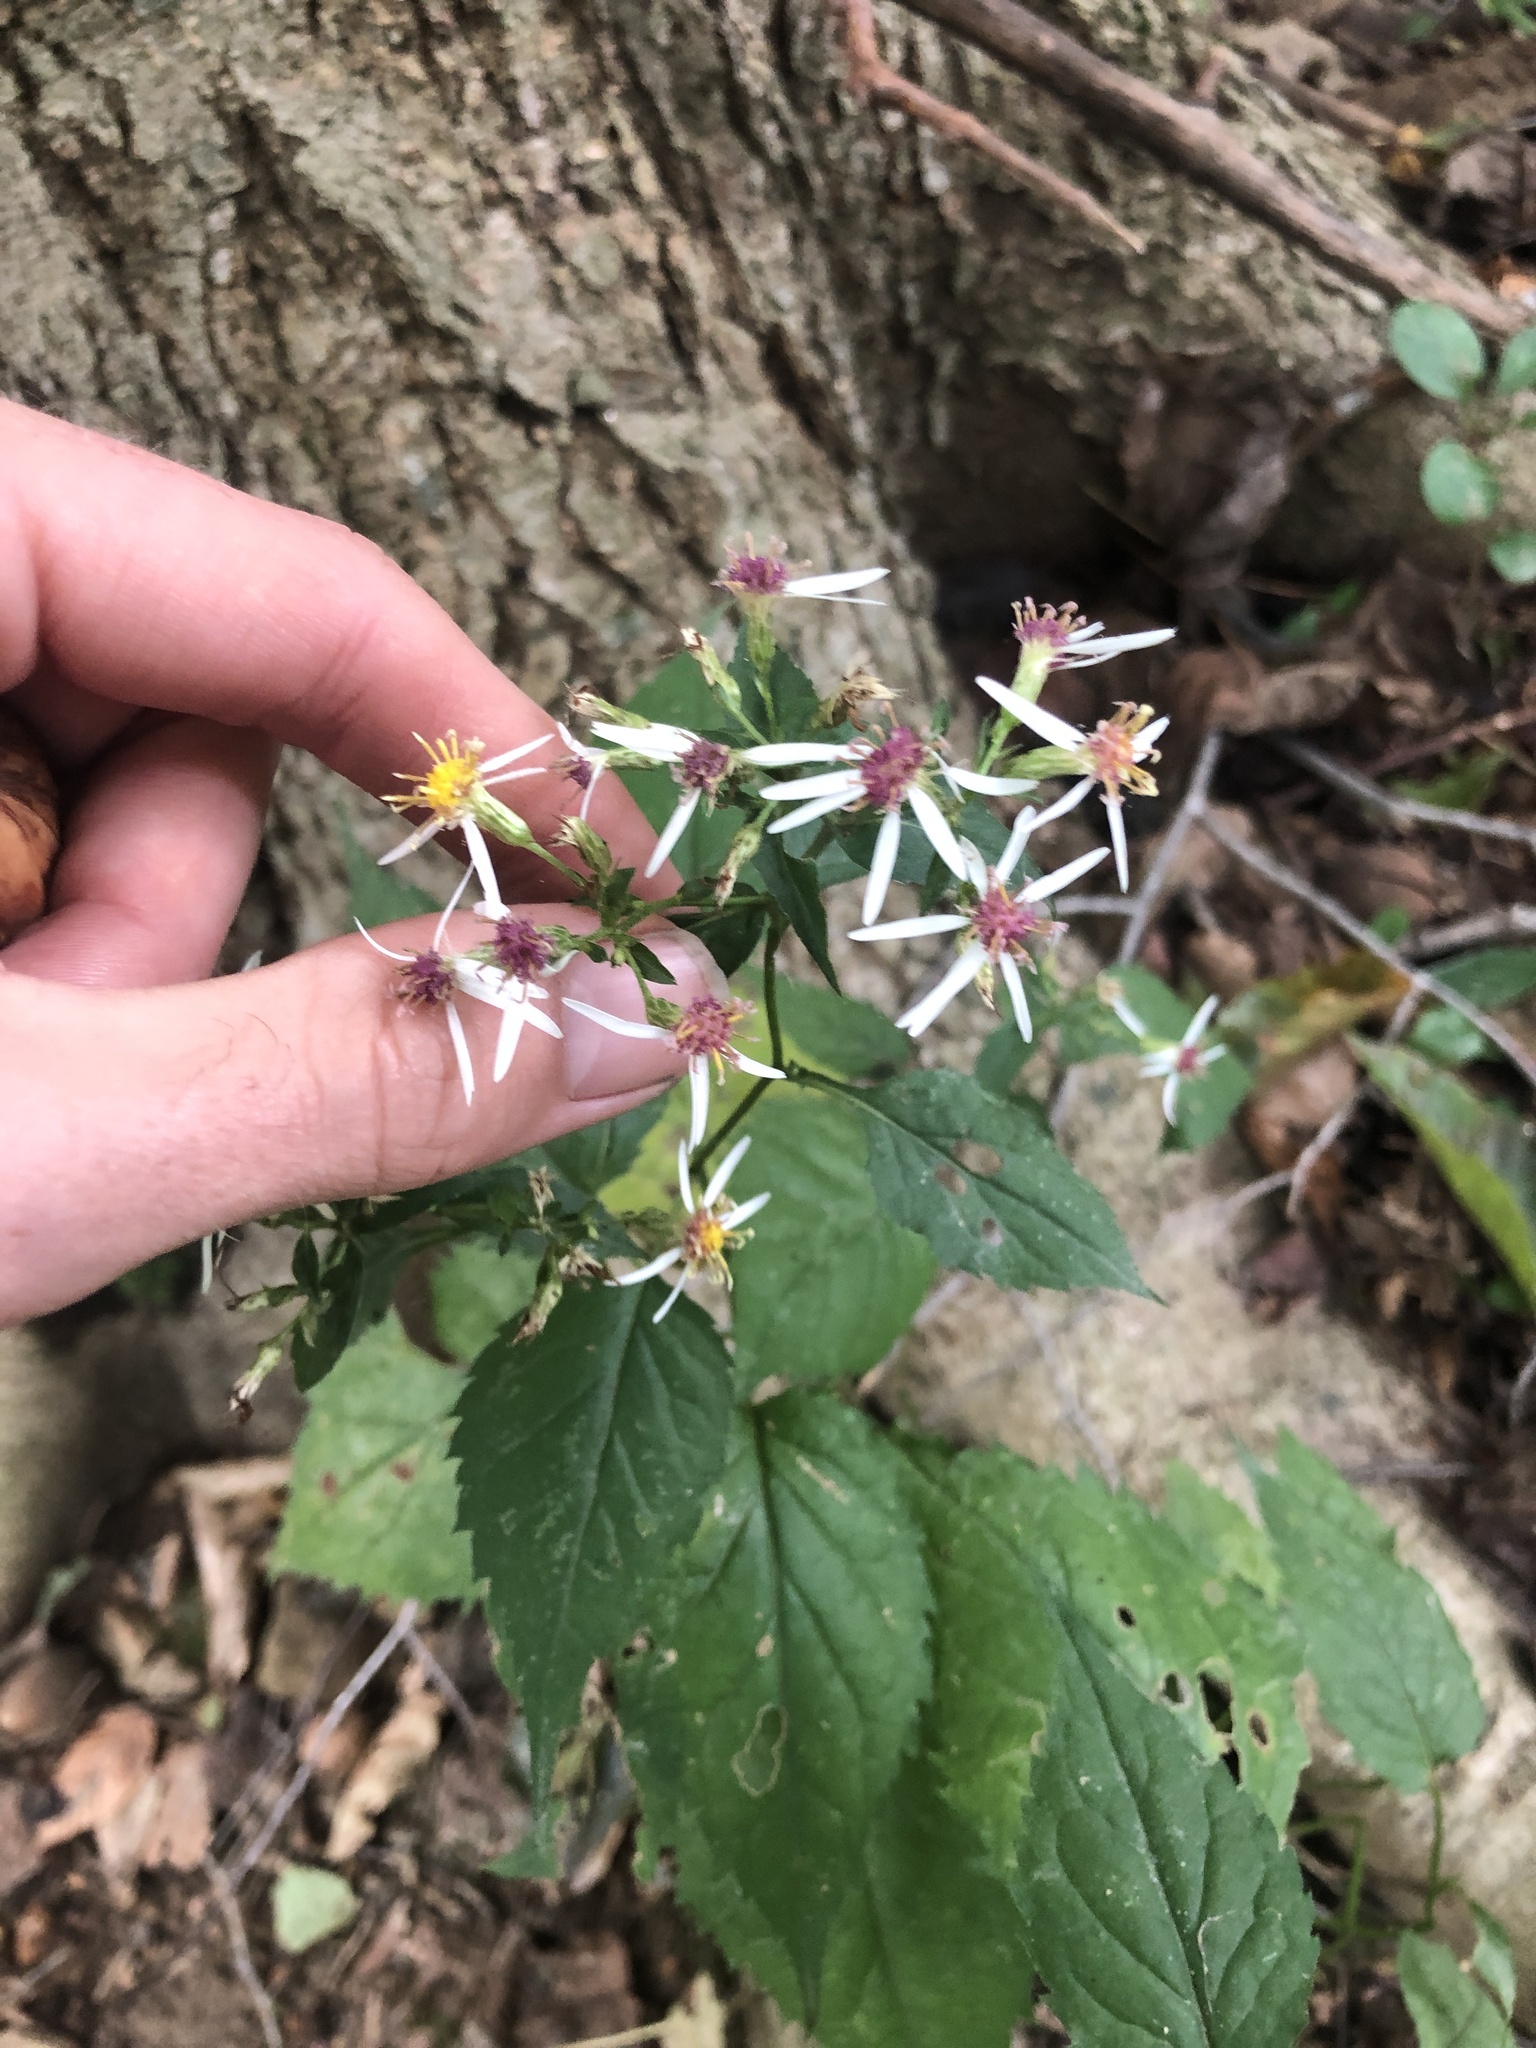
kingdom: Plantae
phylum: Tracheophyta
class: Magnoliopsida
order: Asterales
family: Asteraceae
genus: Eurybia
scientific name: Eurybia divaricata
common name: White wood aster
